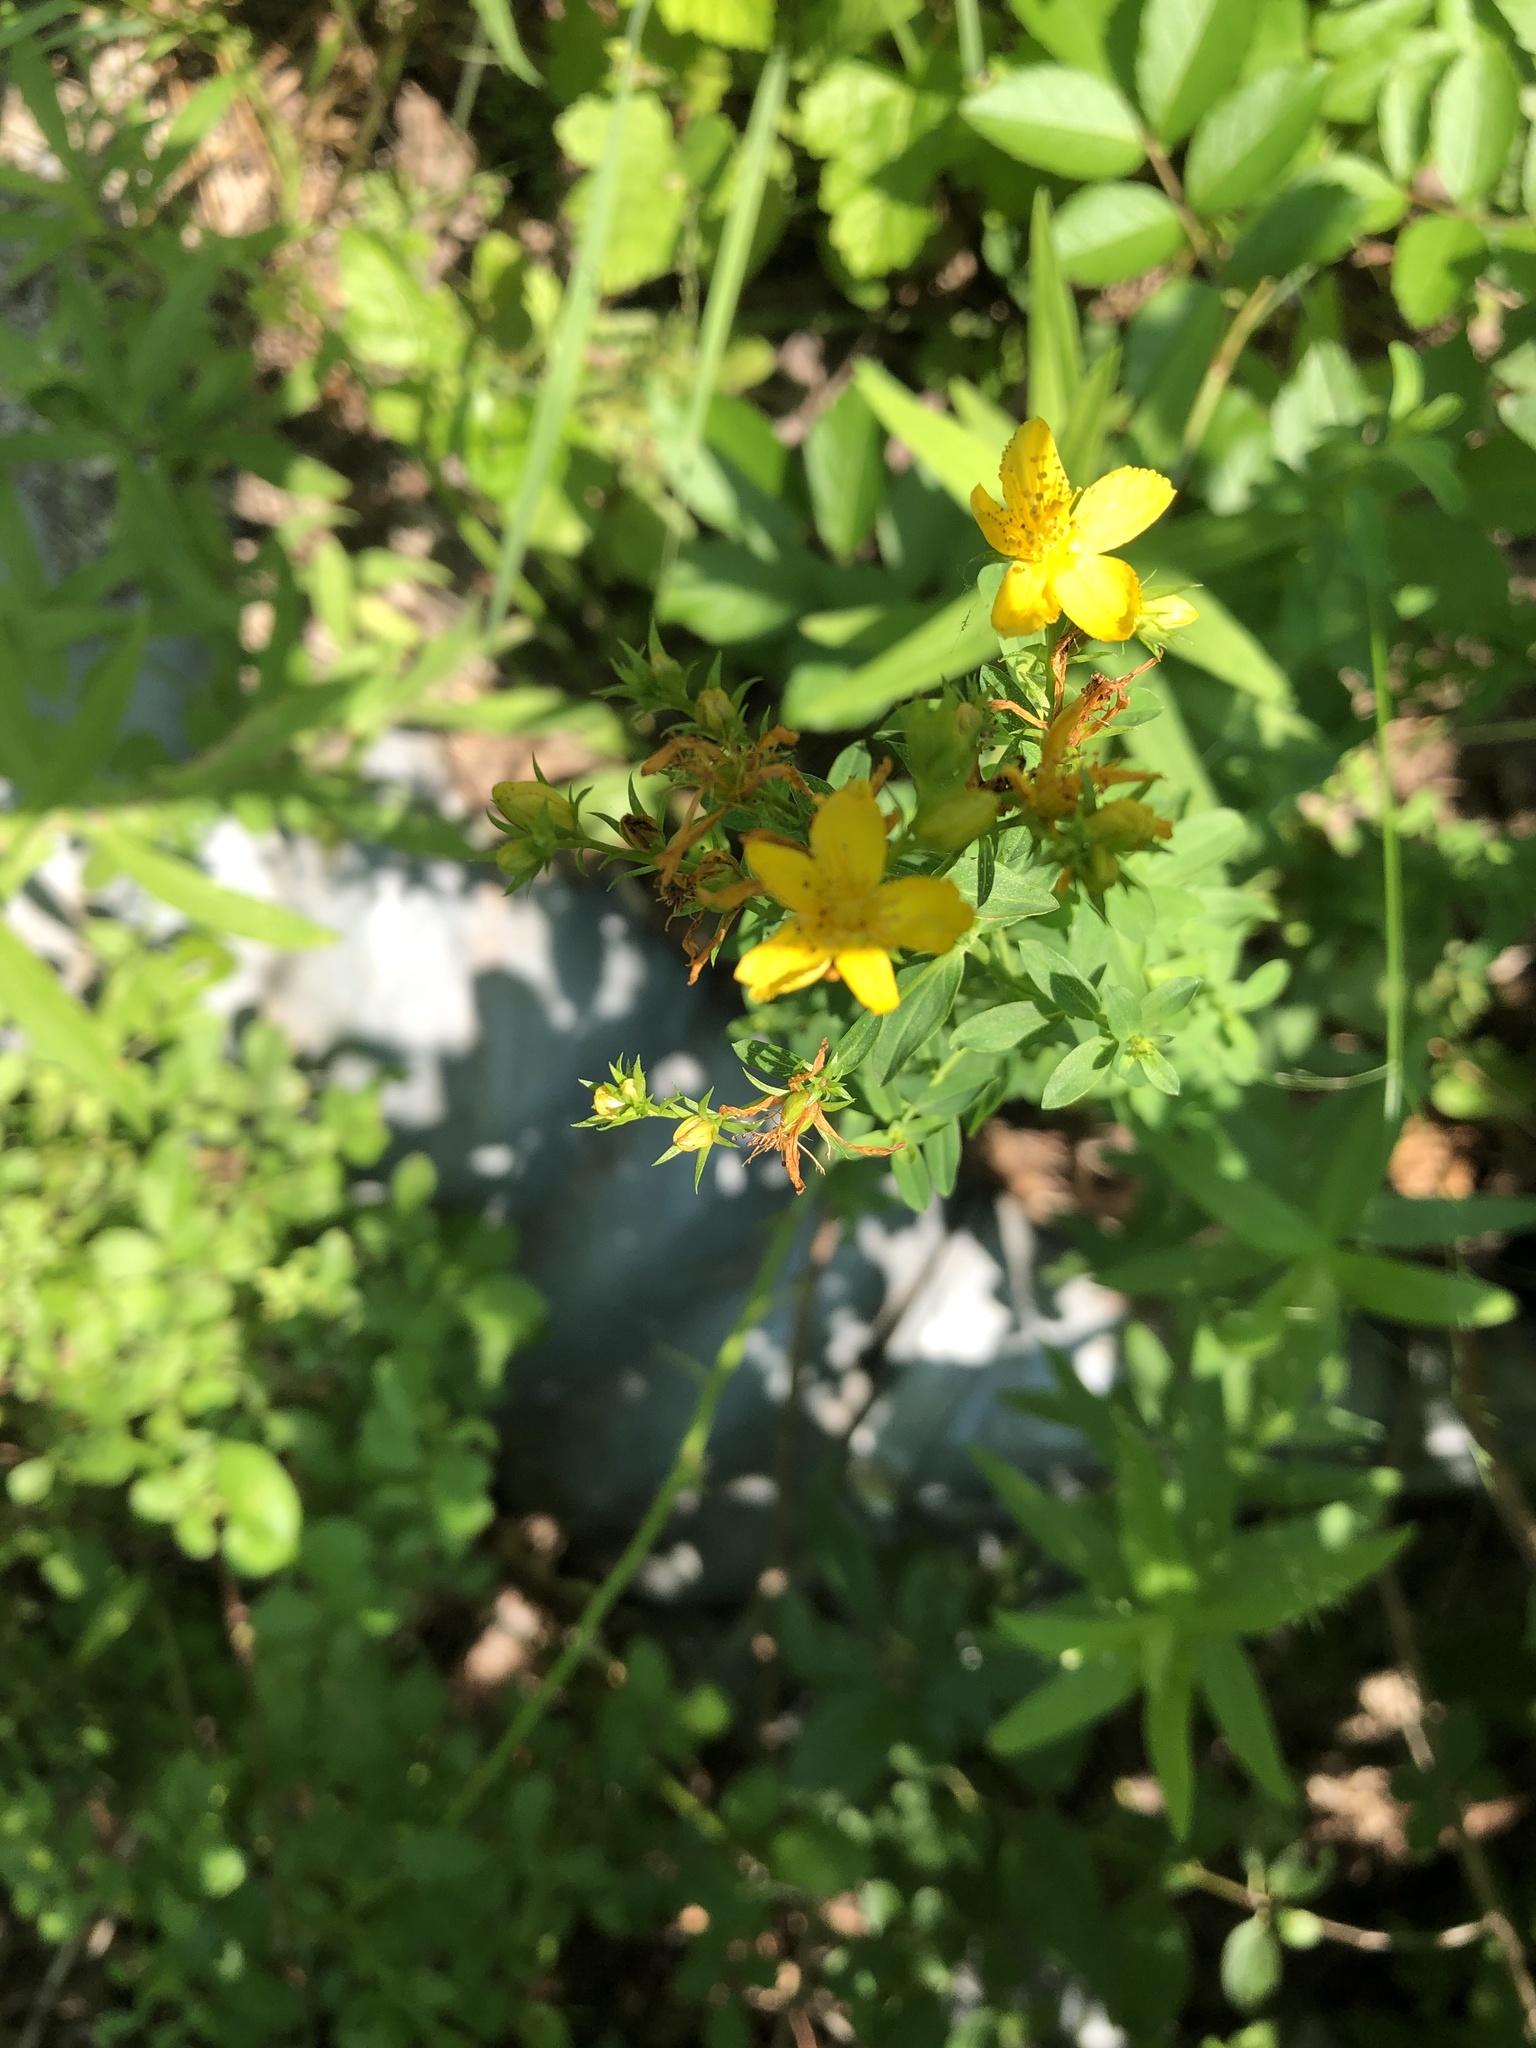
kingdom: Plantae
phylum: Tracheophyta
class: Magnoliopsida
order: Malpighiales
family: Hypericaceae
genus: Hypericum
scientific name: Hypericum perforatum
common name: Common st. johnswort
